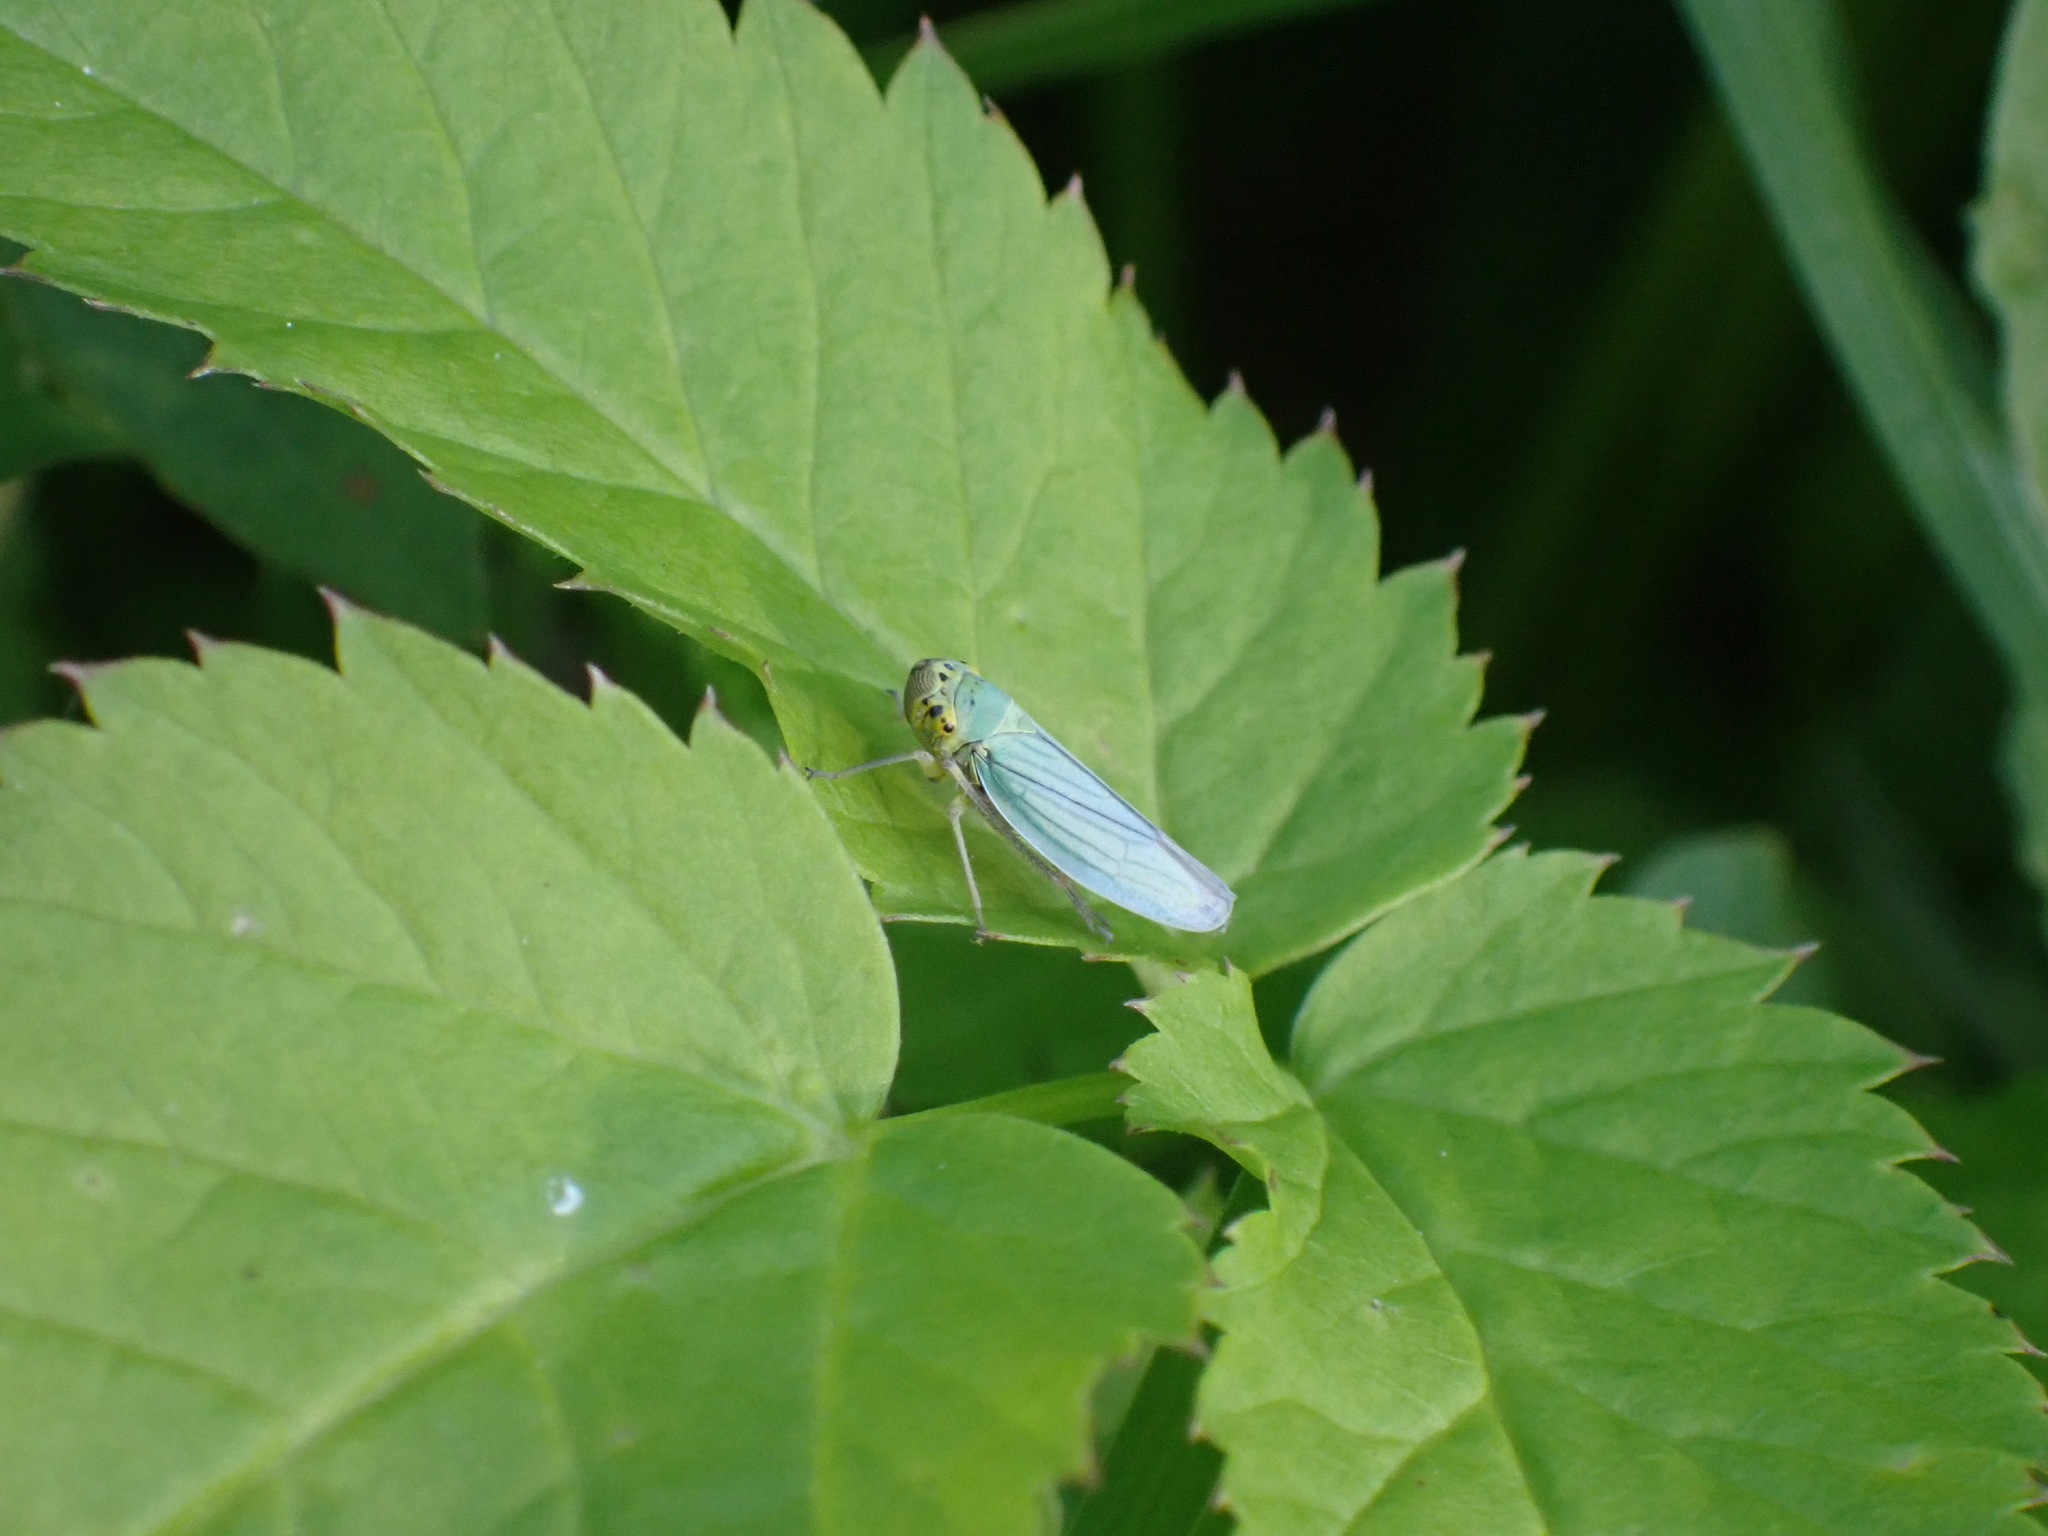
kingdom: Animalia
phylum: Arthropoda
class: Insecta
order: Hemiptera
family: Cicadellidae
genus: Cicadella
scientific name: Cicadella viridis
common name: Leafhopper
